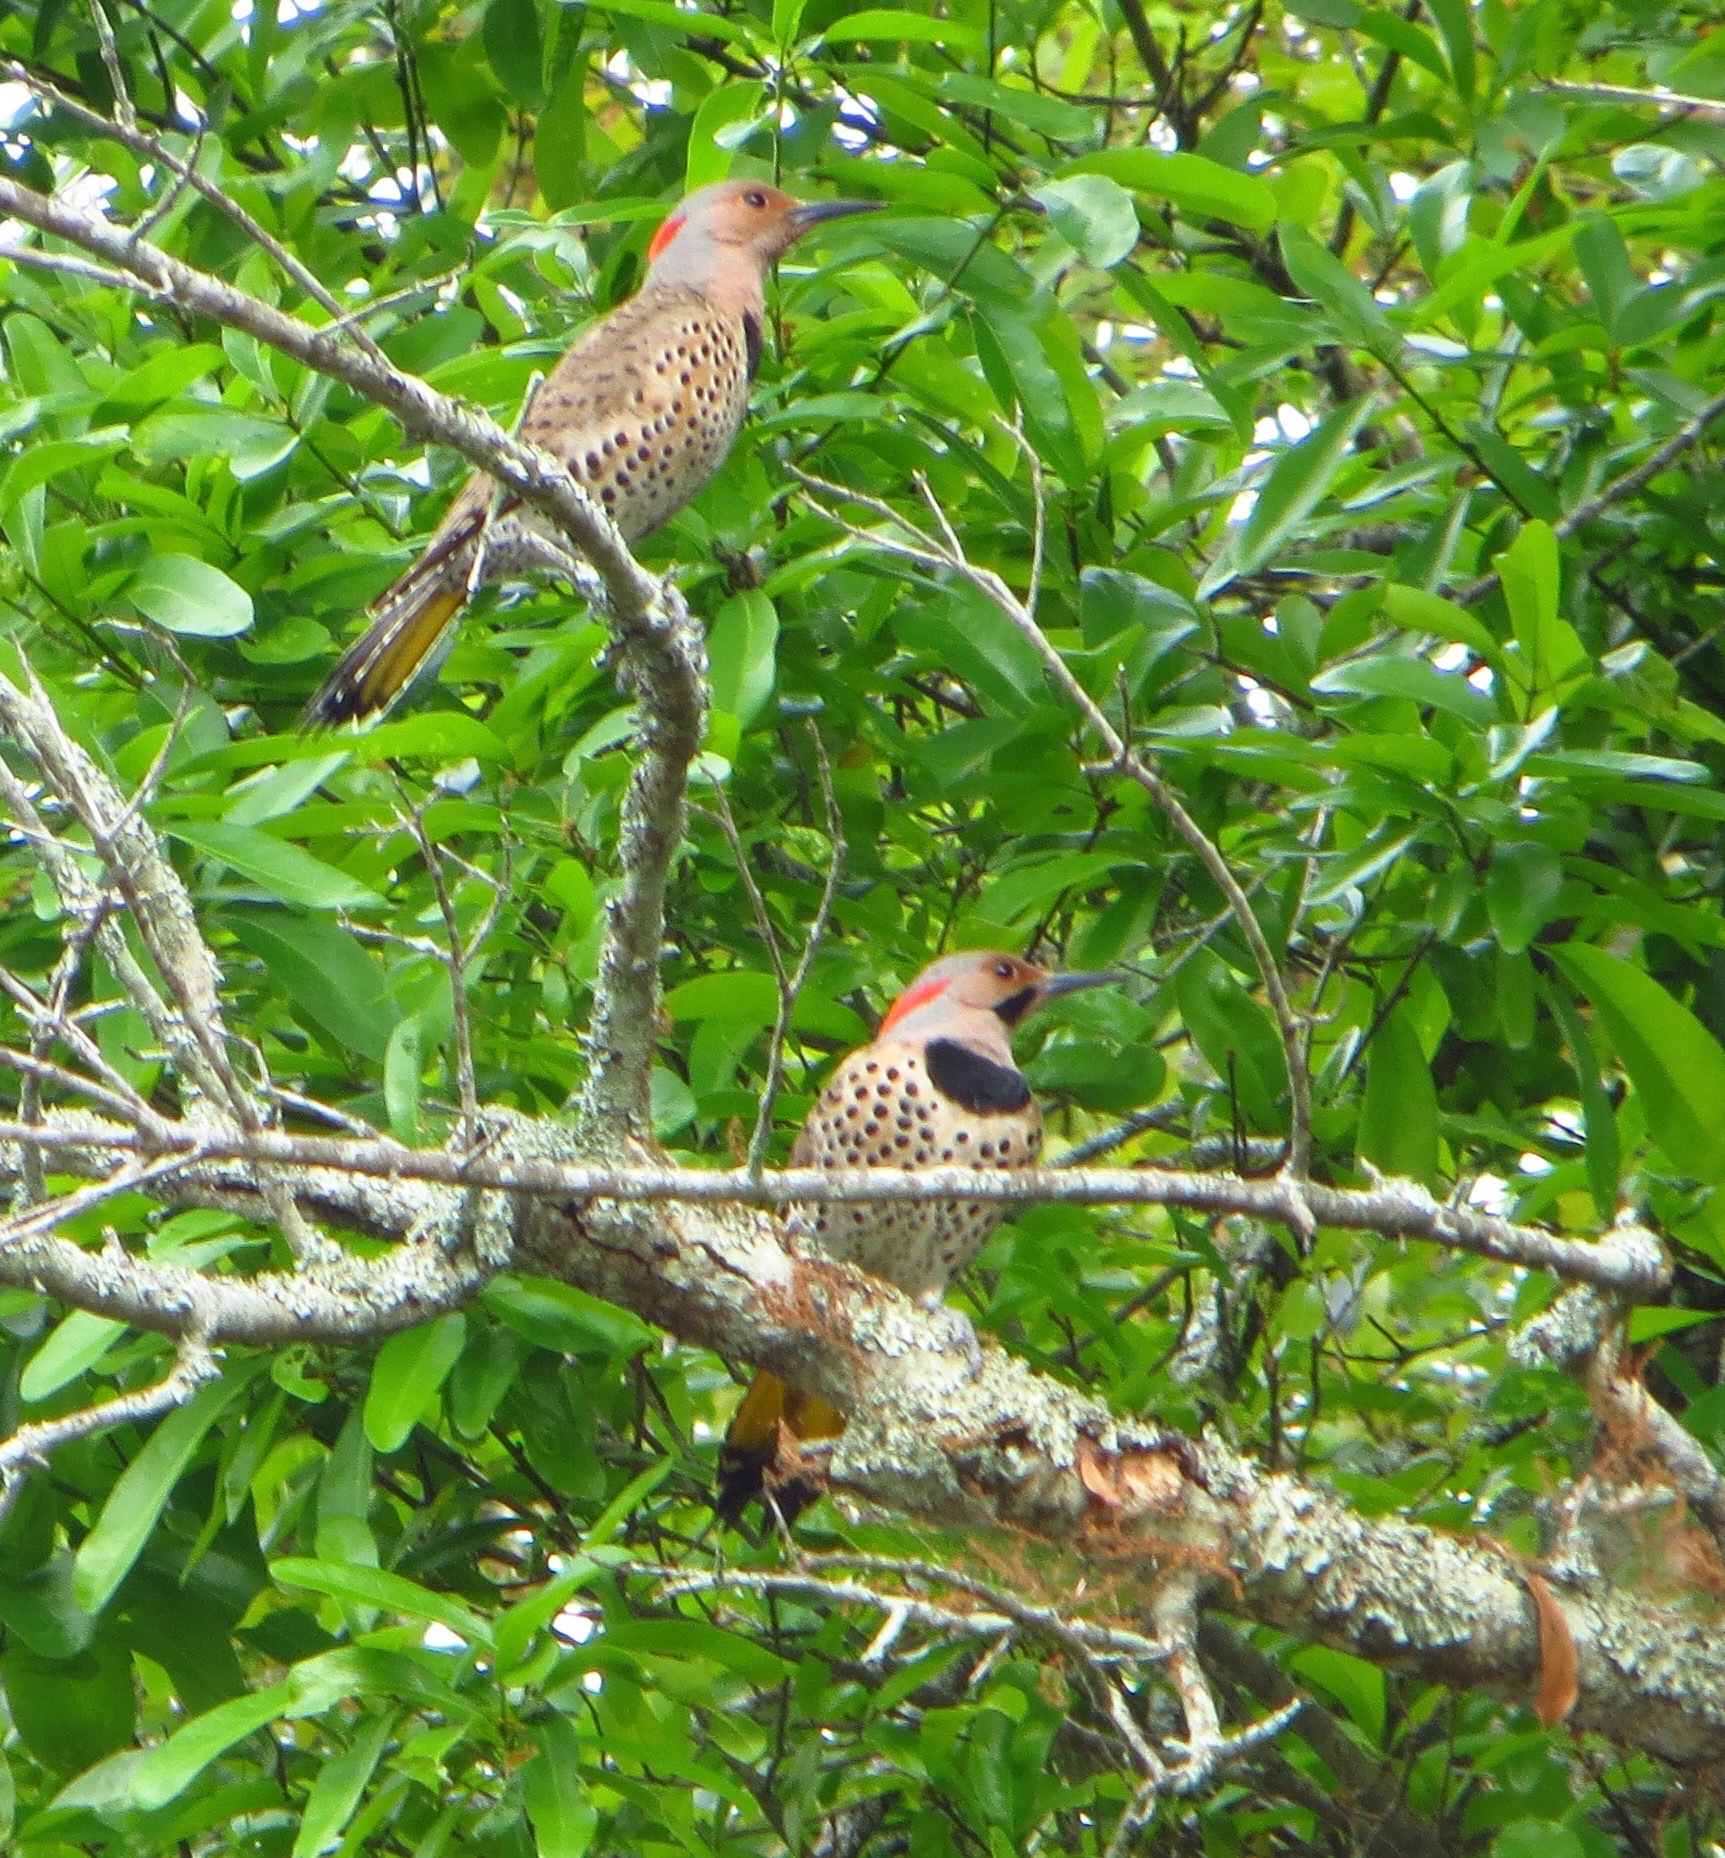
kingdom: Animalia
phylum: Chordata
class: Aves
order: Piciformes
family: Picidae
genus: Colaptes
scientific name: Colaptes auratus
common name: Northern flicker
